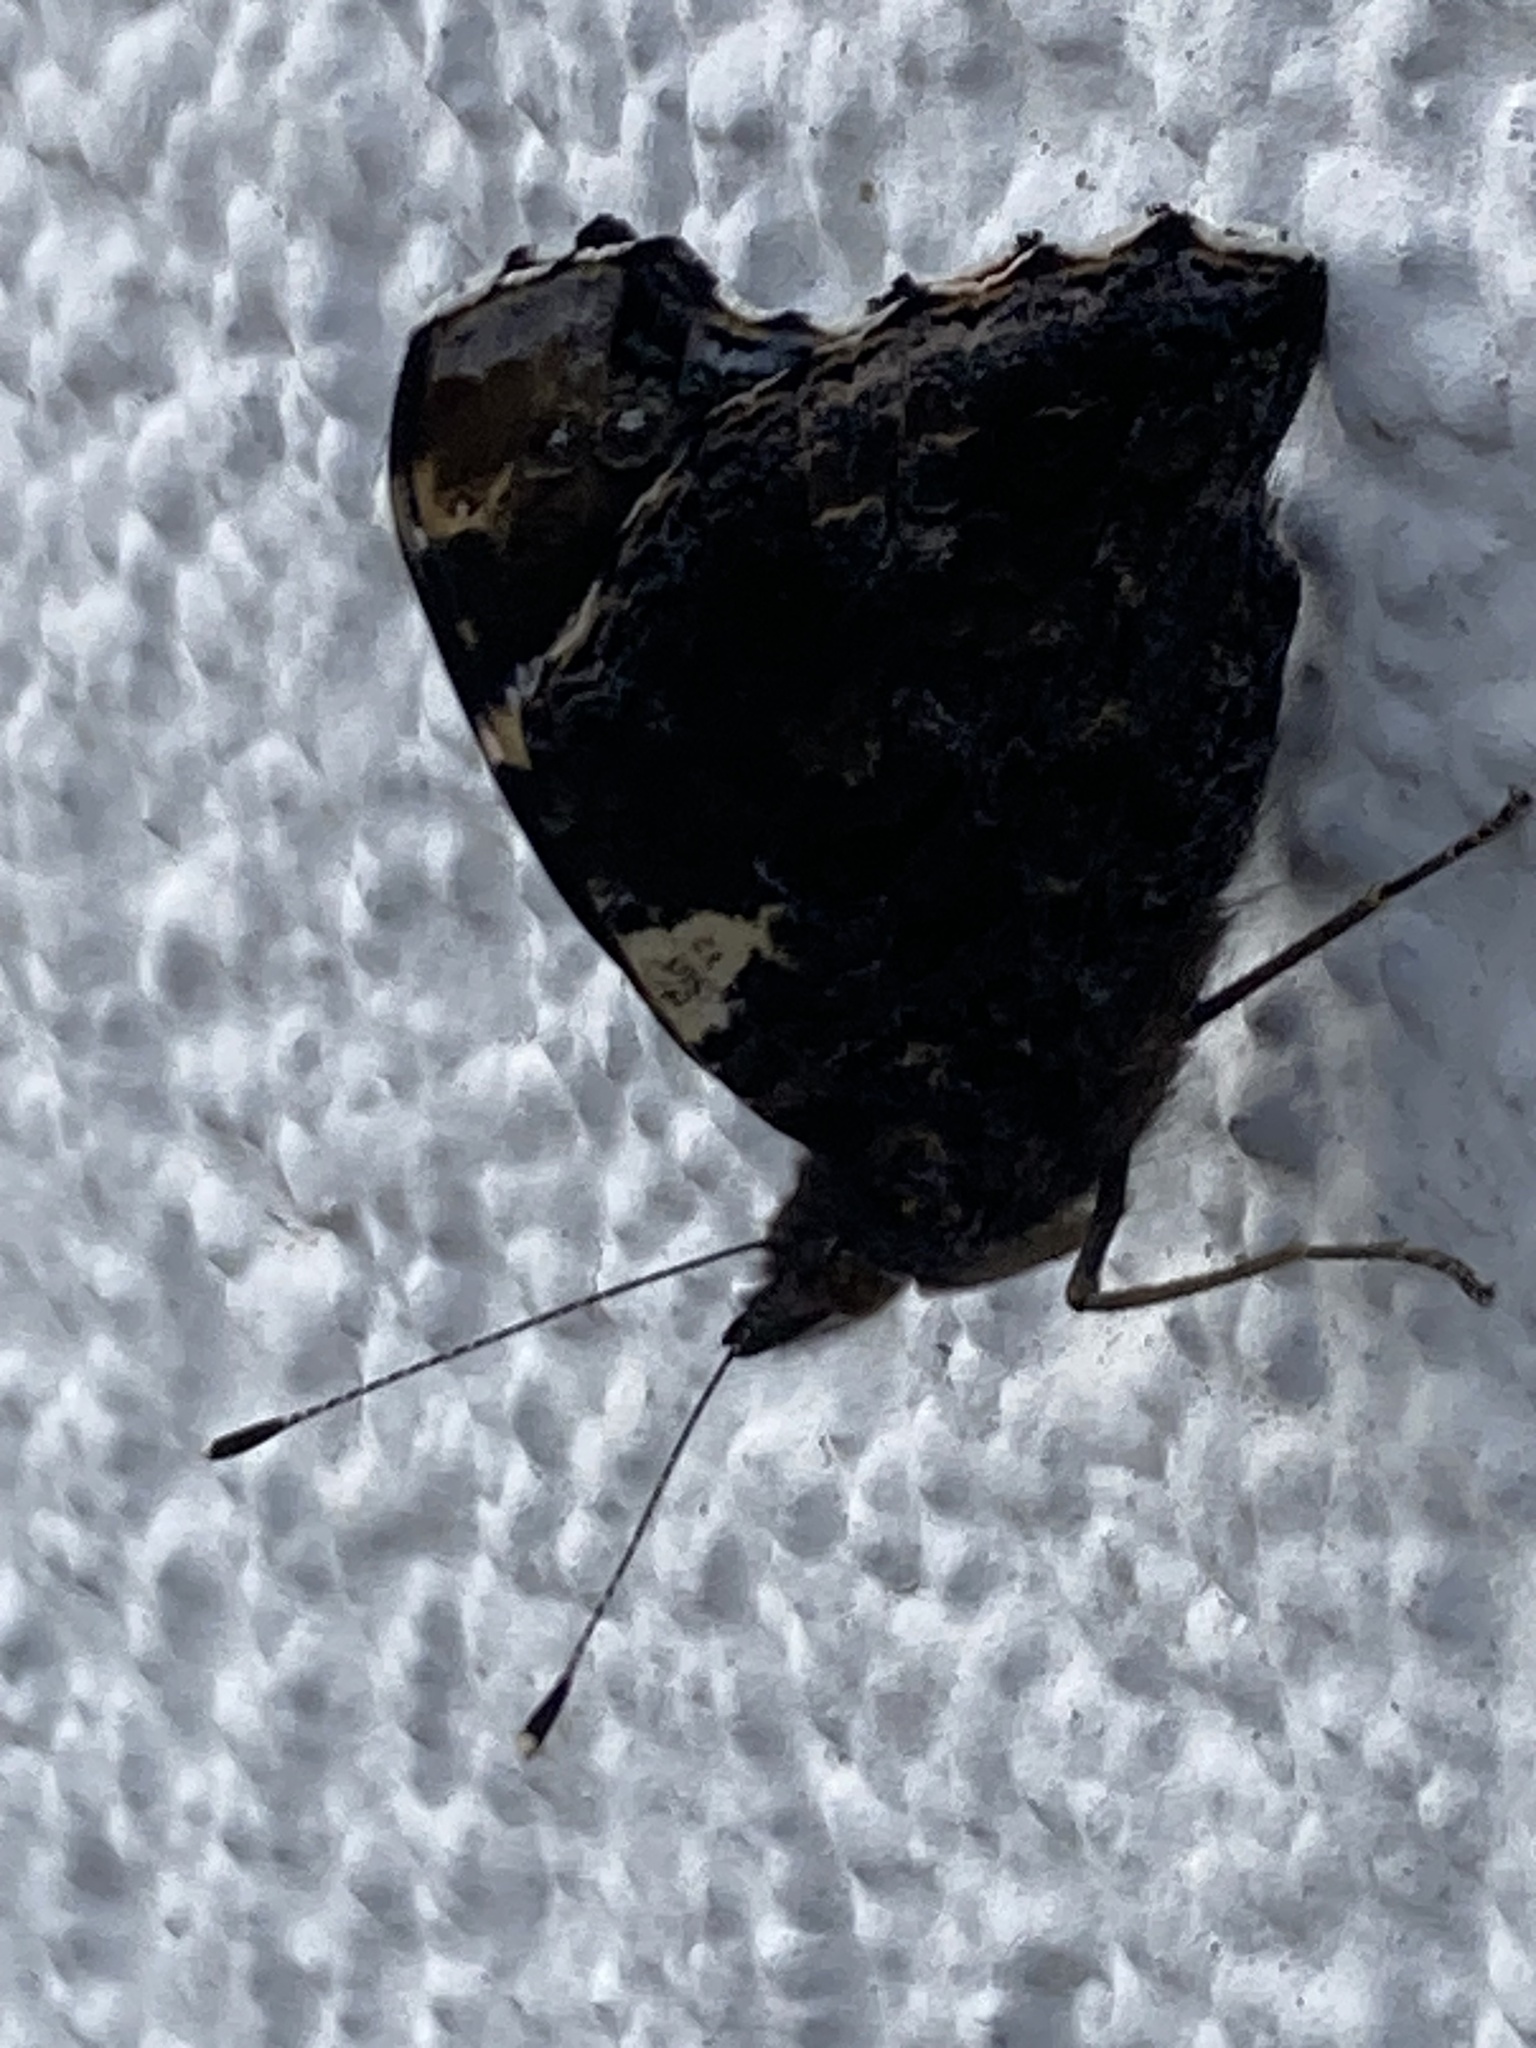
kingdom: Animalia
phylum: Arthropoda
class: Insecta
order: Lepidoptera
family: Nymphalidae
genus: Vanessa
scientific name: Vanessa atalanta
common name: Red admiral
